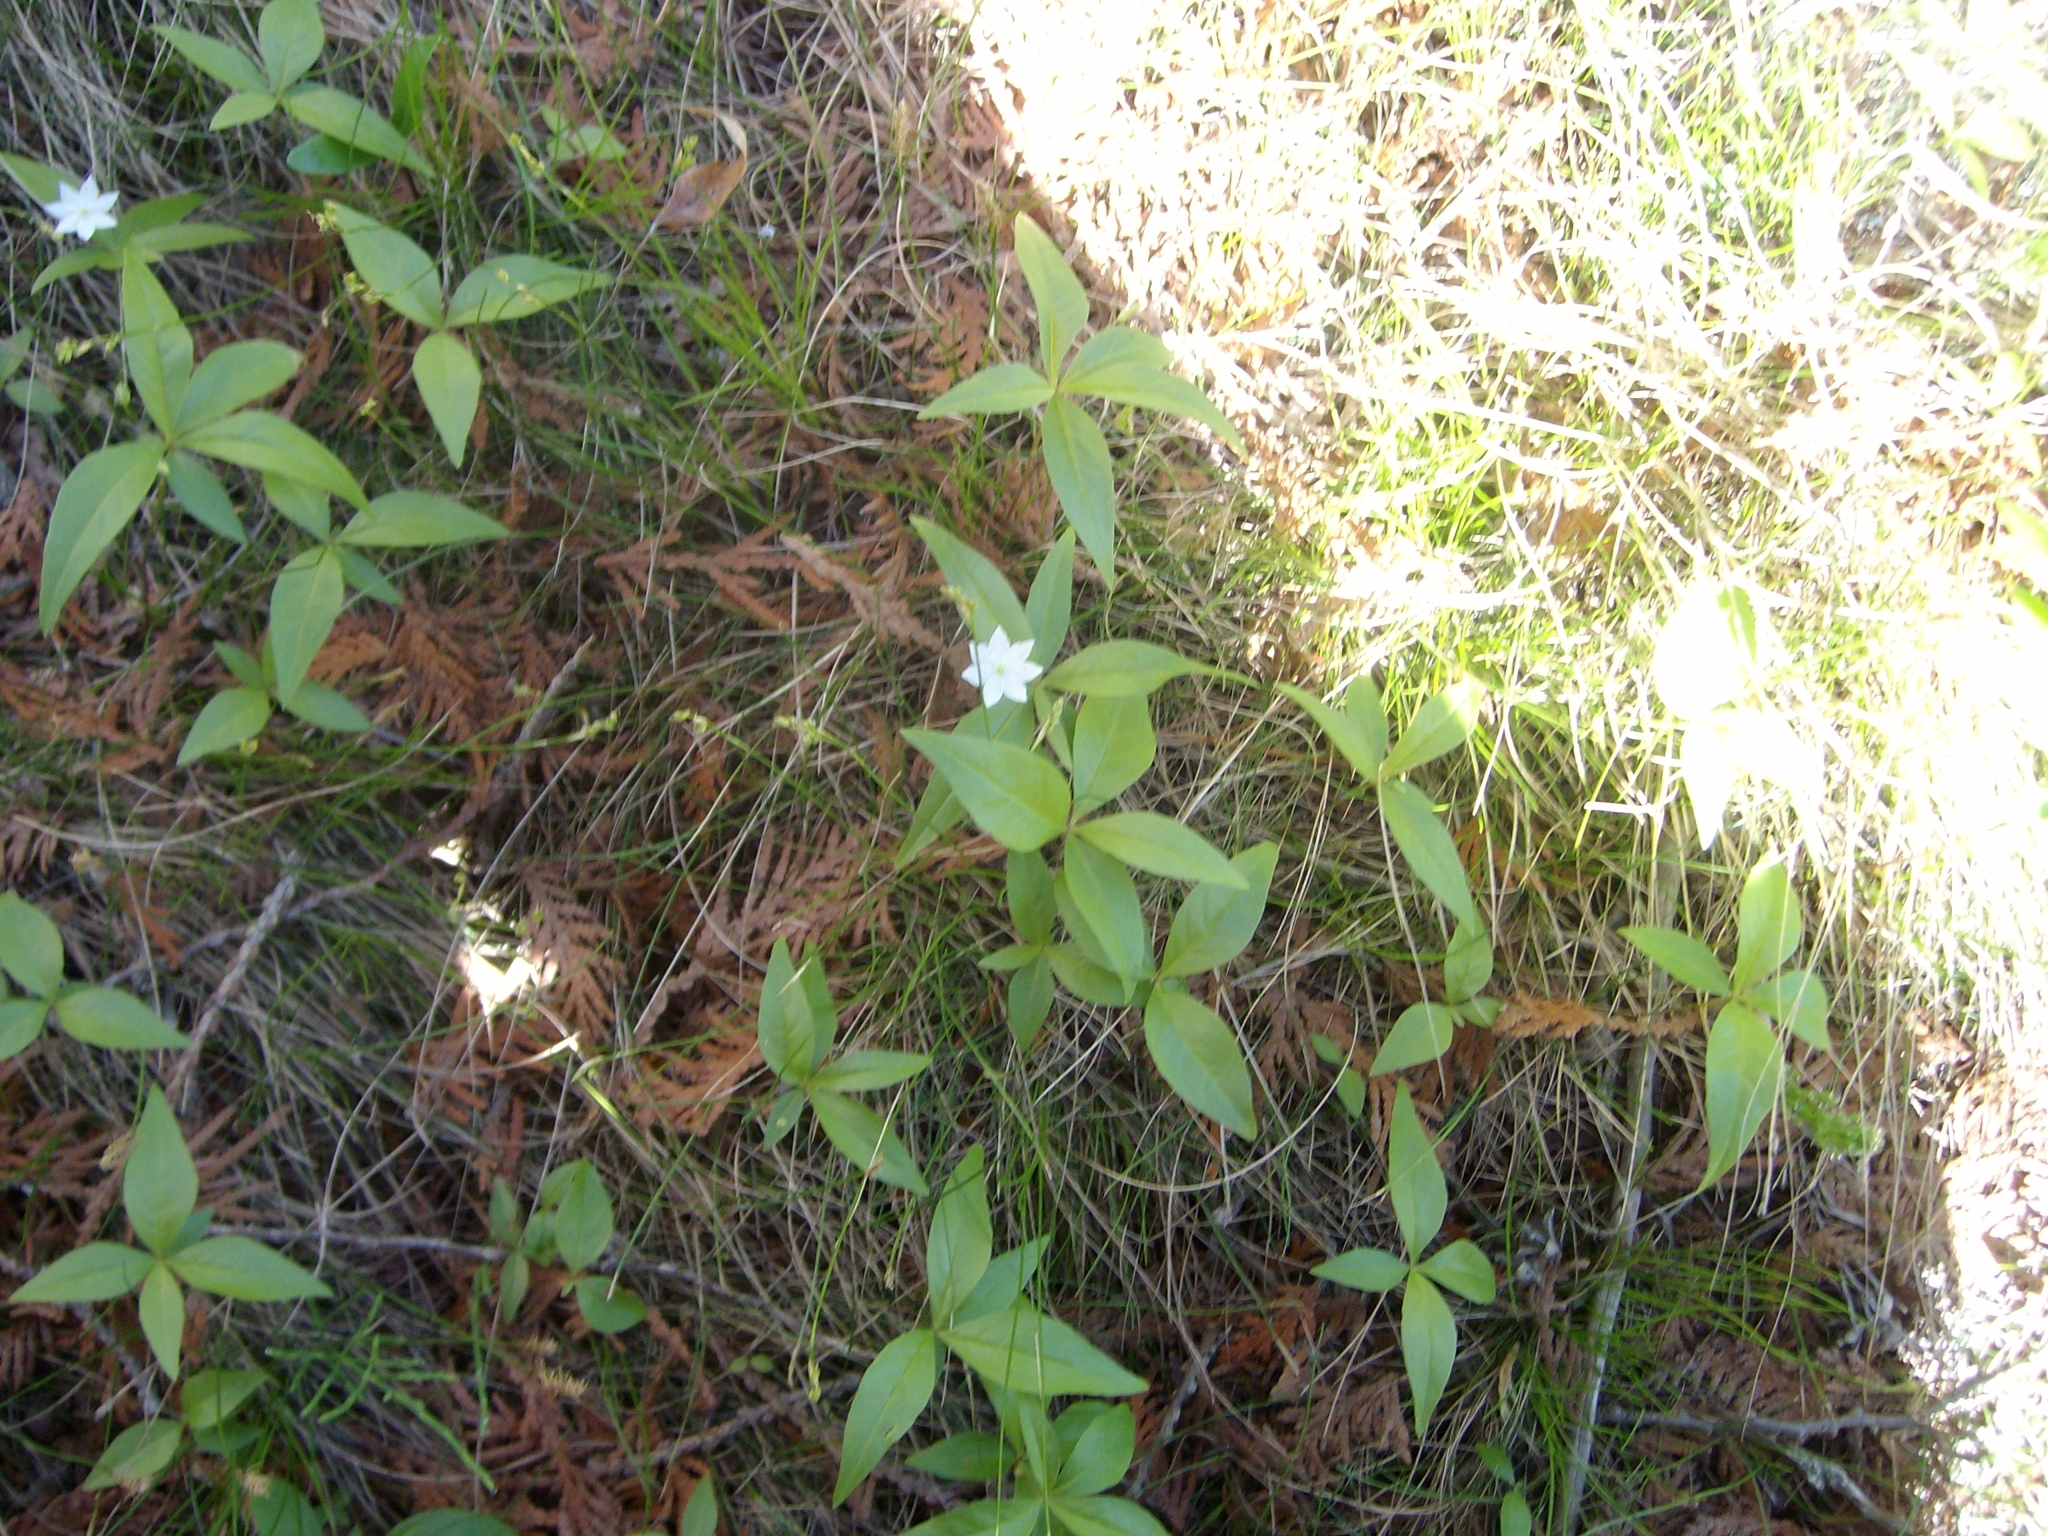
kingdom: Plantae
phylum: Tracheophyta
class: Magnoliopsida
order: Ericales
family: Primulaceae
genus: Lysimachia
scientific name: Lysimachia borealis
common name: American starflower
